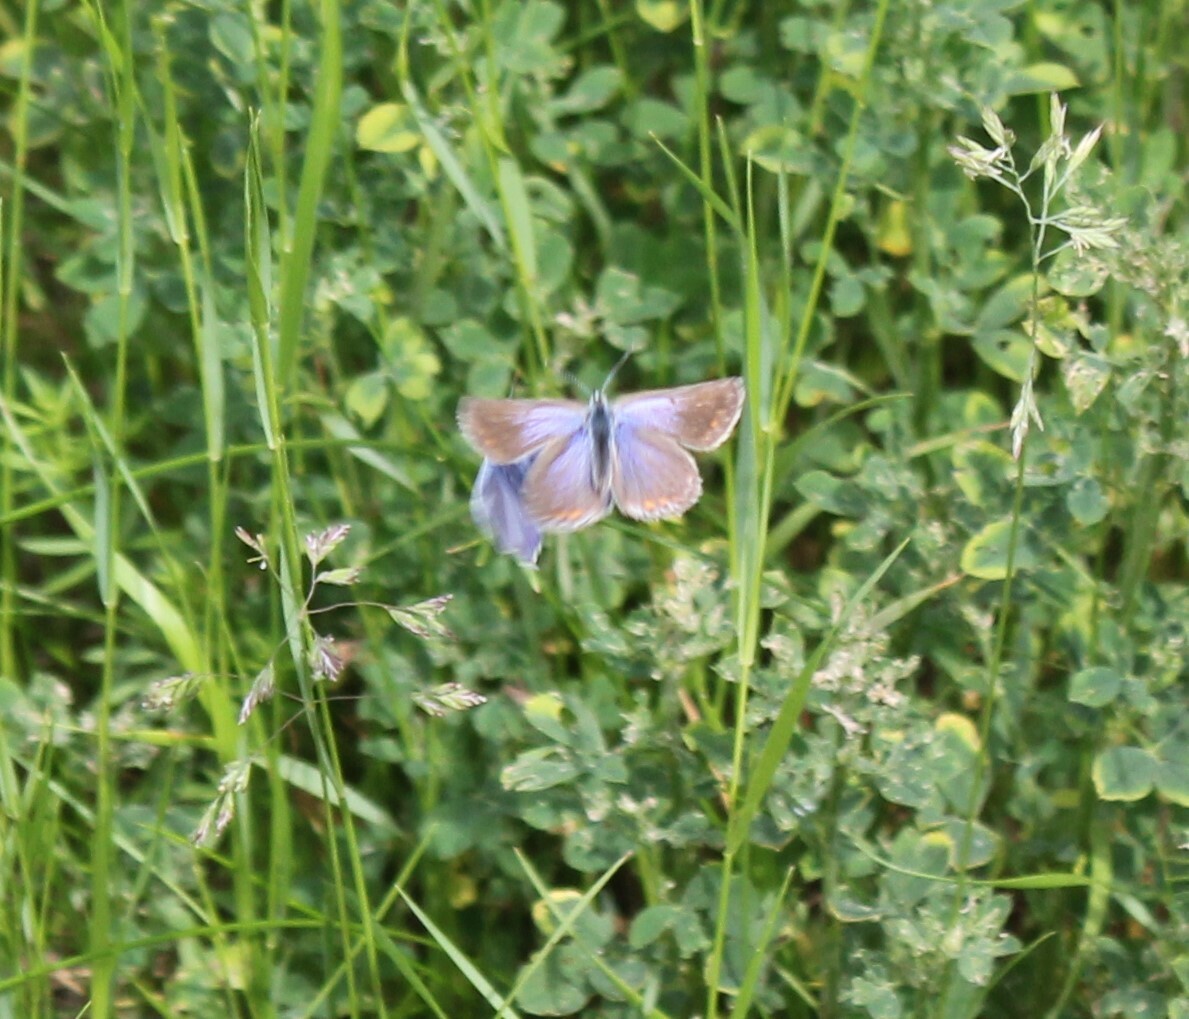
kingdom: Animalia
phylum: Arthropoda
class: Insecta
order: Lepidoptera
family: Lycaenidae
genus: Polyommatus
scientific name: Polyommatus icarus
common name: Common blue
